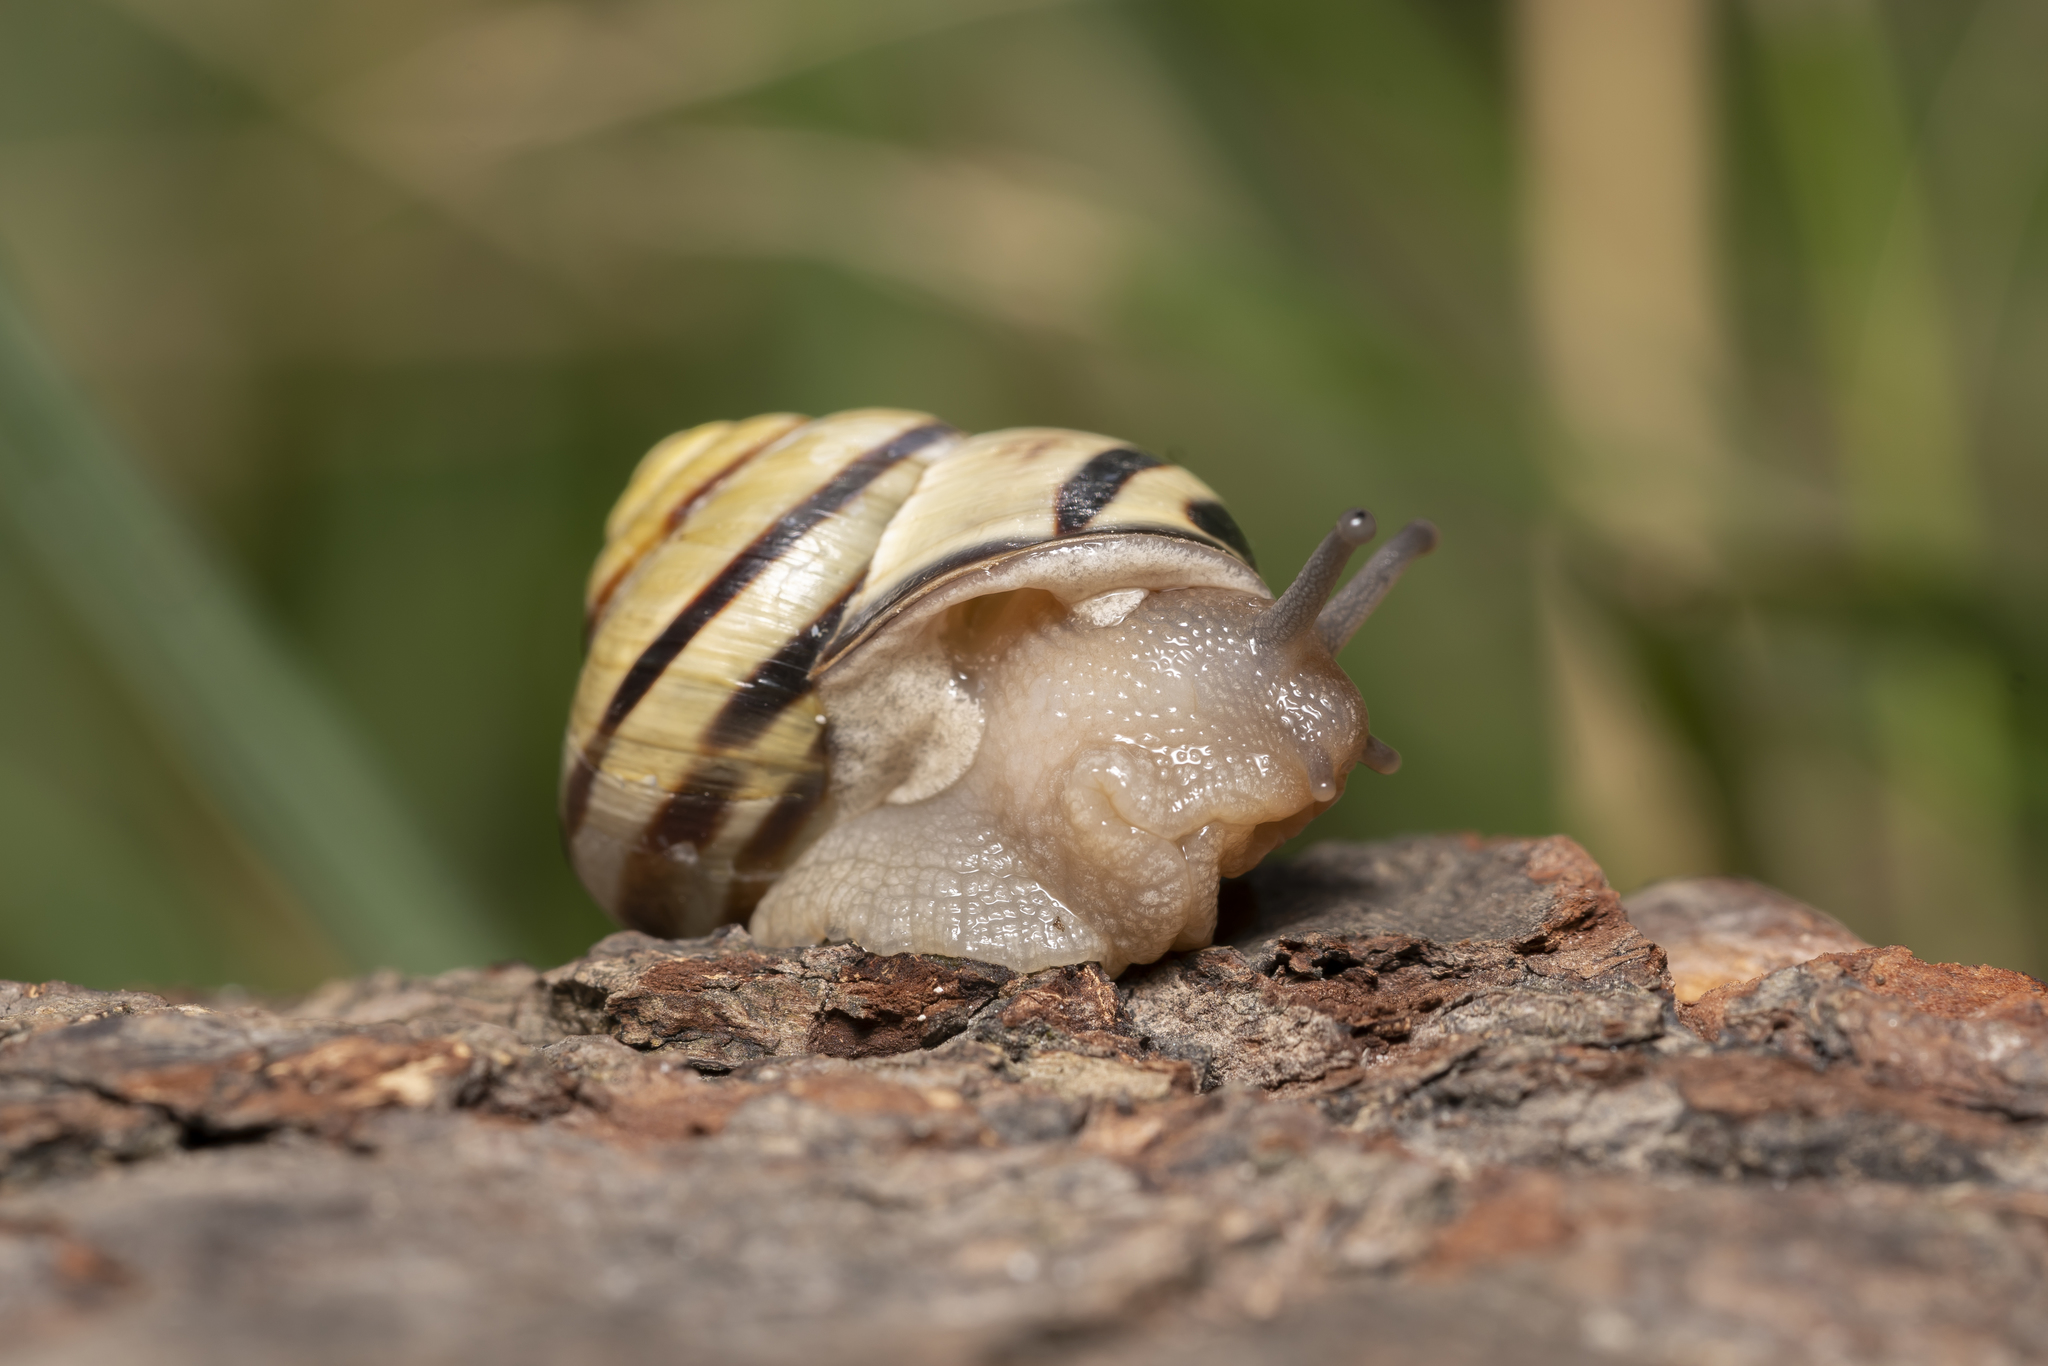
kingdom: Animalia
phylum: Mollusca
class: Gastropoda
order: Stylommatophora
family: Helicidae
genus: Cepaea
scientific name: Cepaea nemoralis
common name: Grovesnail
